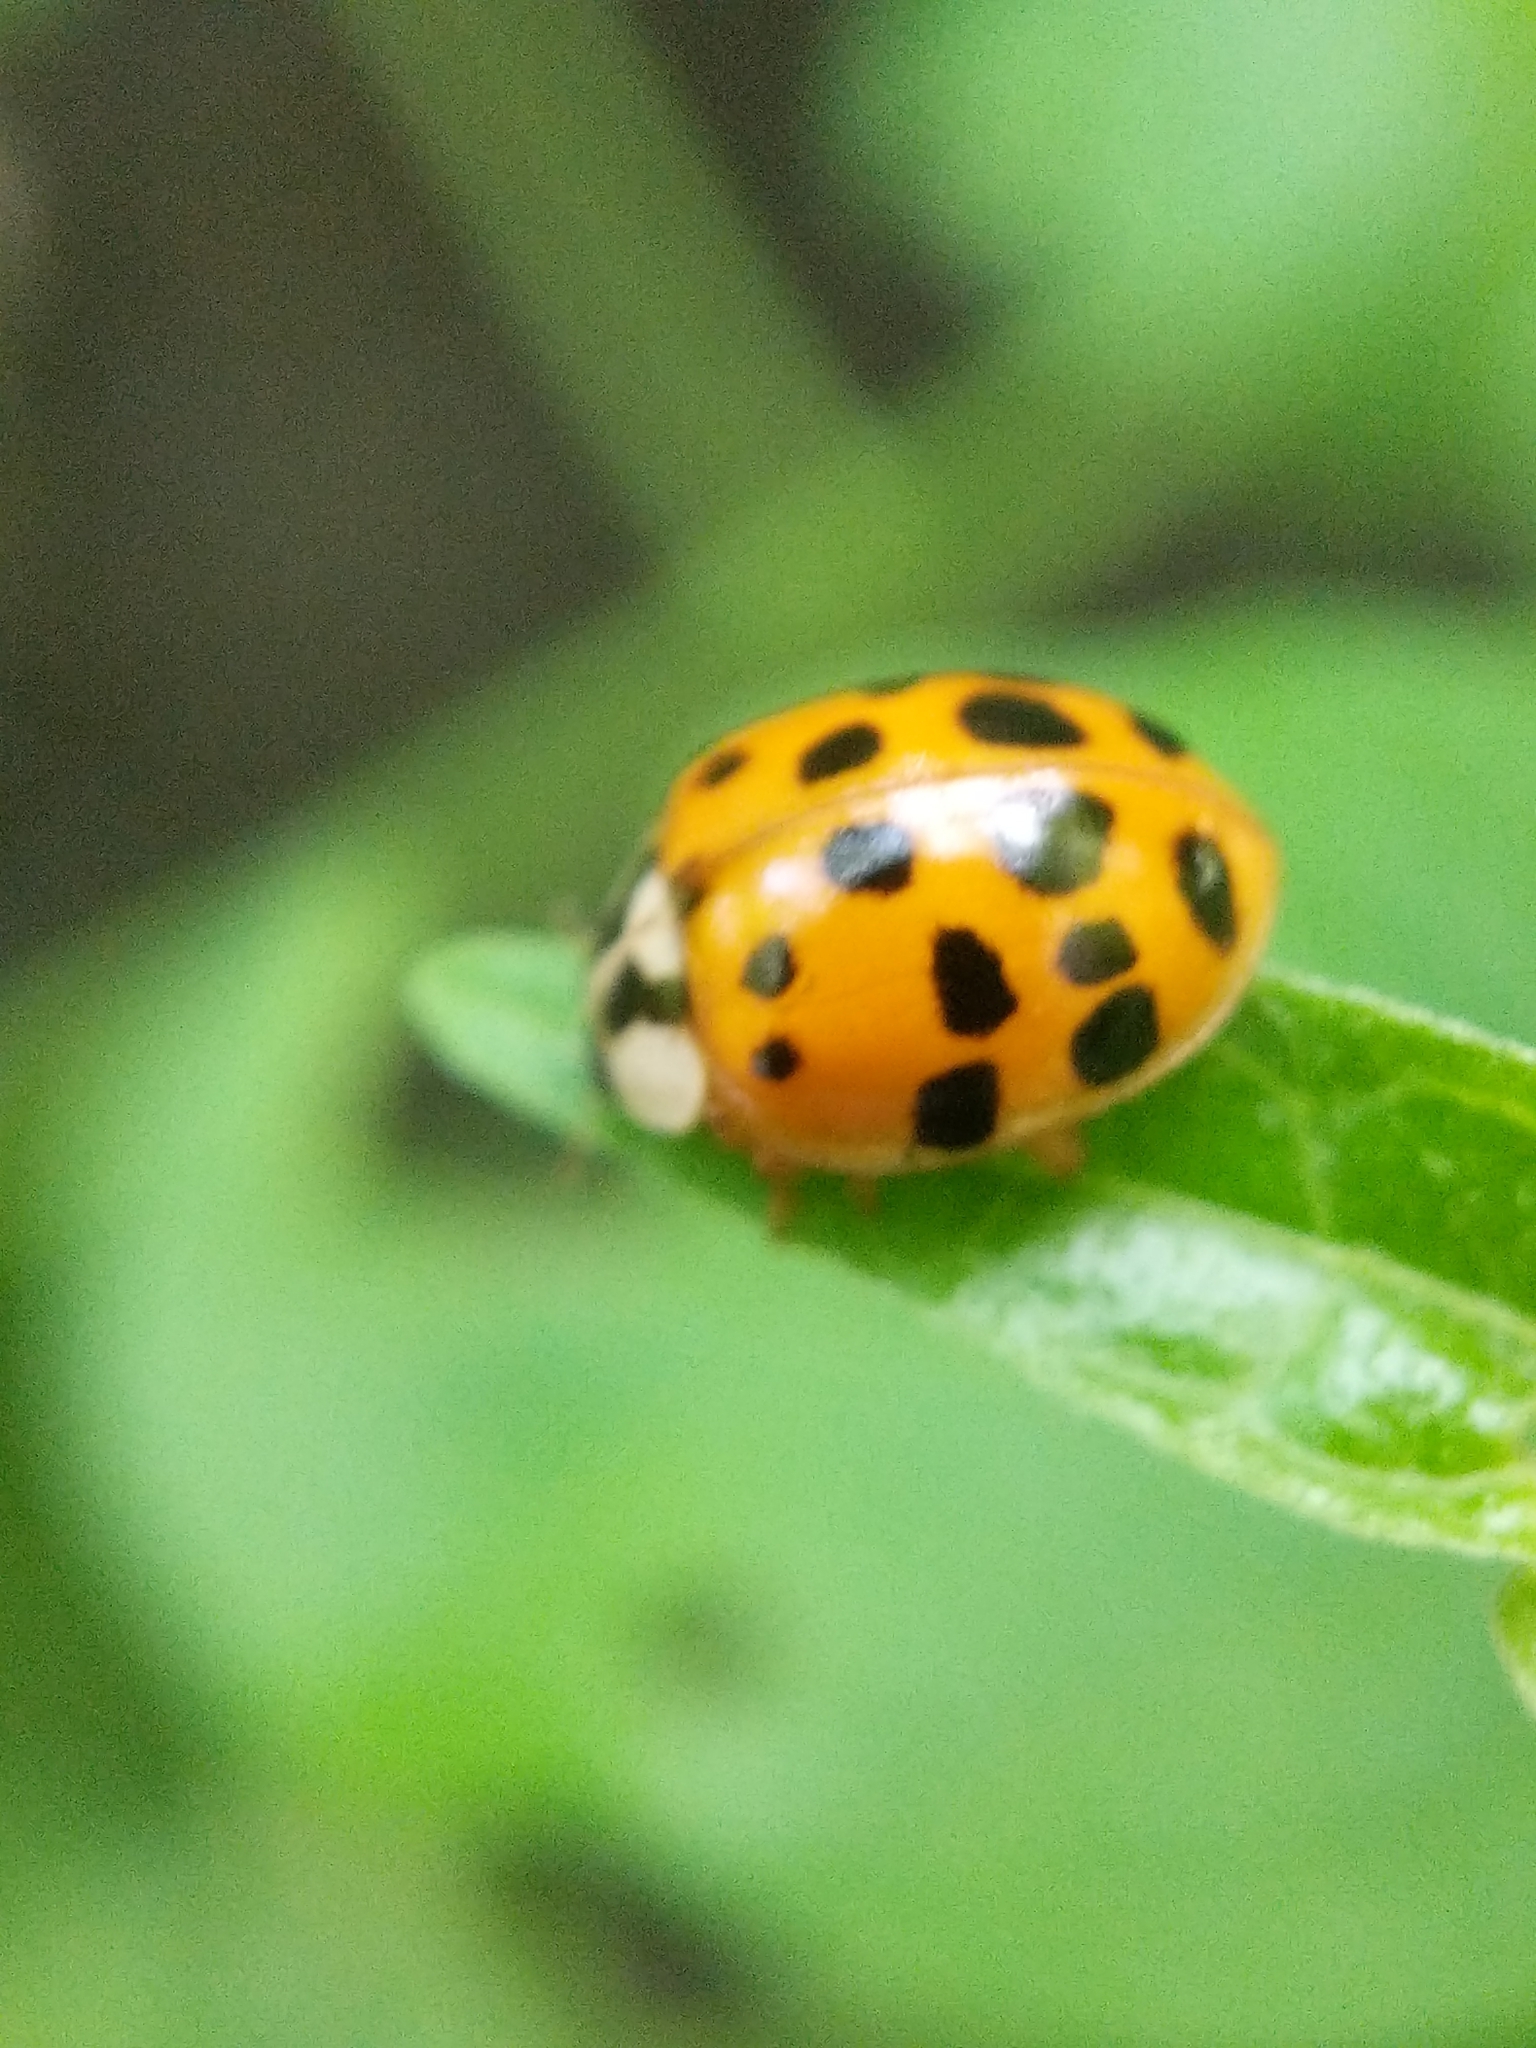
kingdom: Animalia
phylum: Arthropoda
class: Insecta
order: Coleoptera
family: Coccinellidae
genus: Harmonia
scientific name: Harmonia axyridis
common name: Harlequin ladybird
